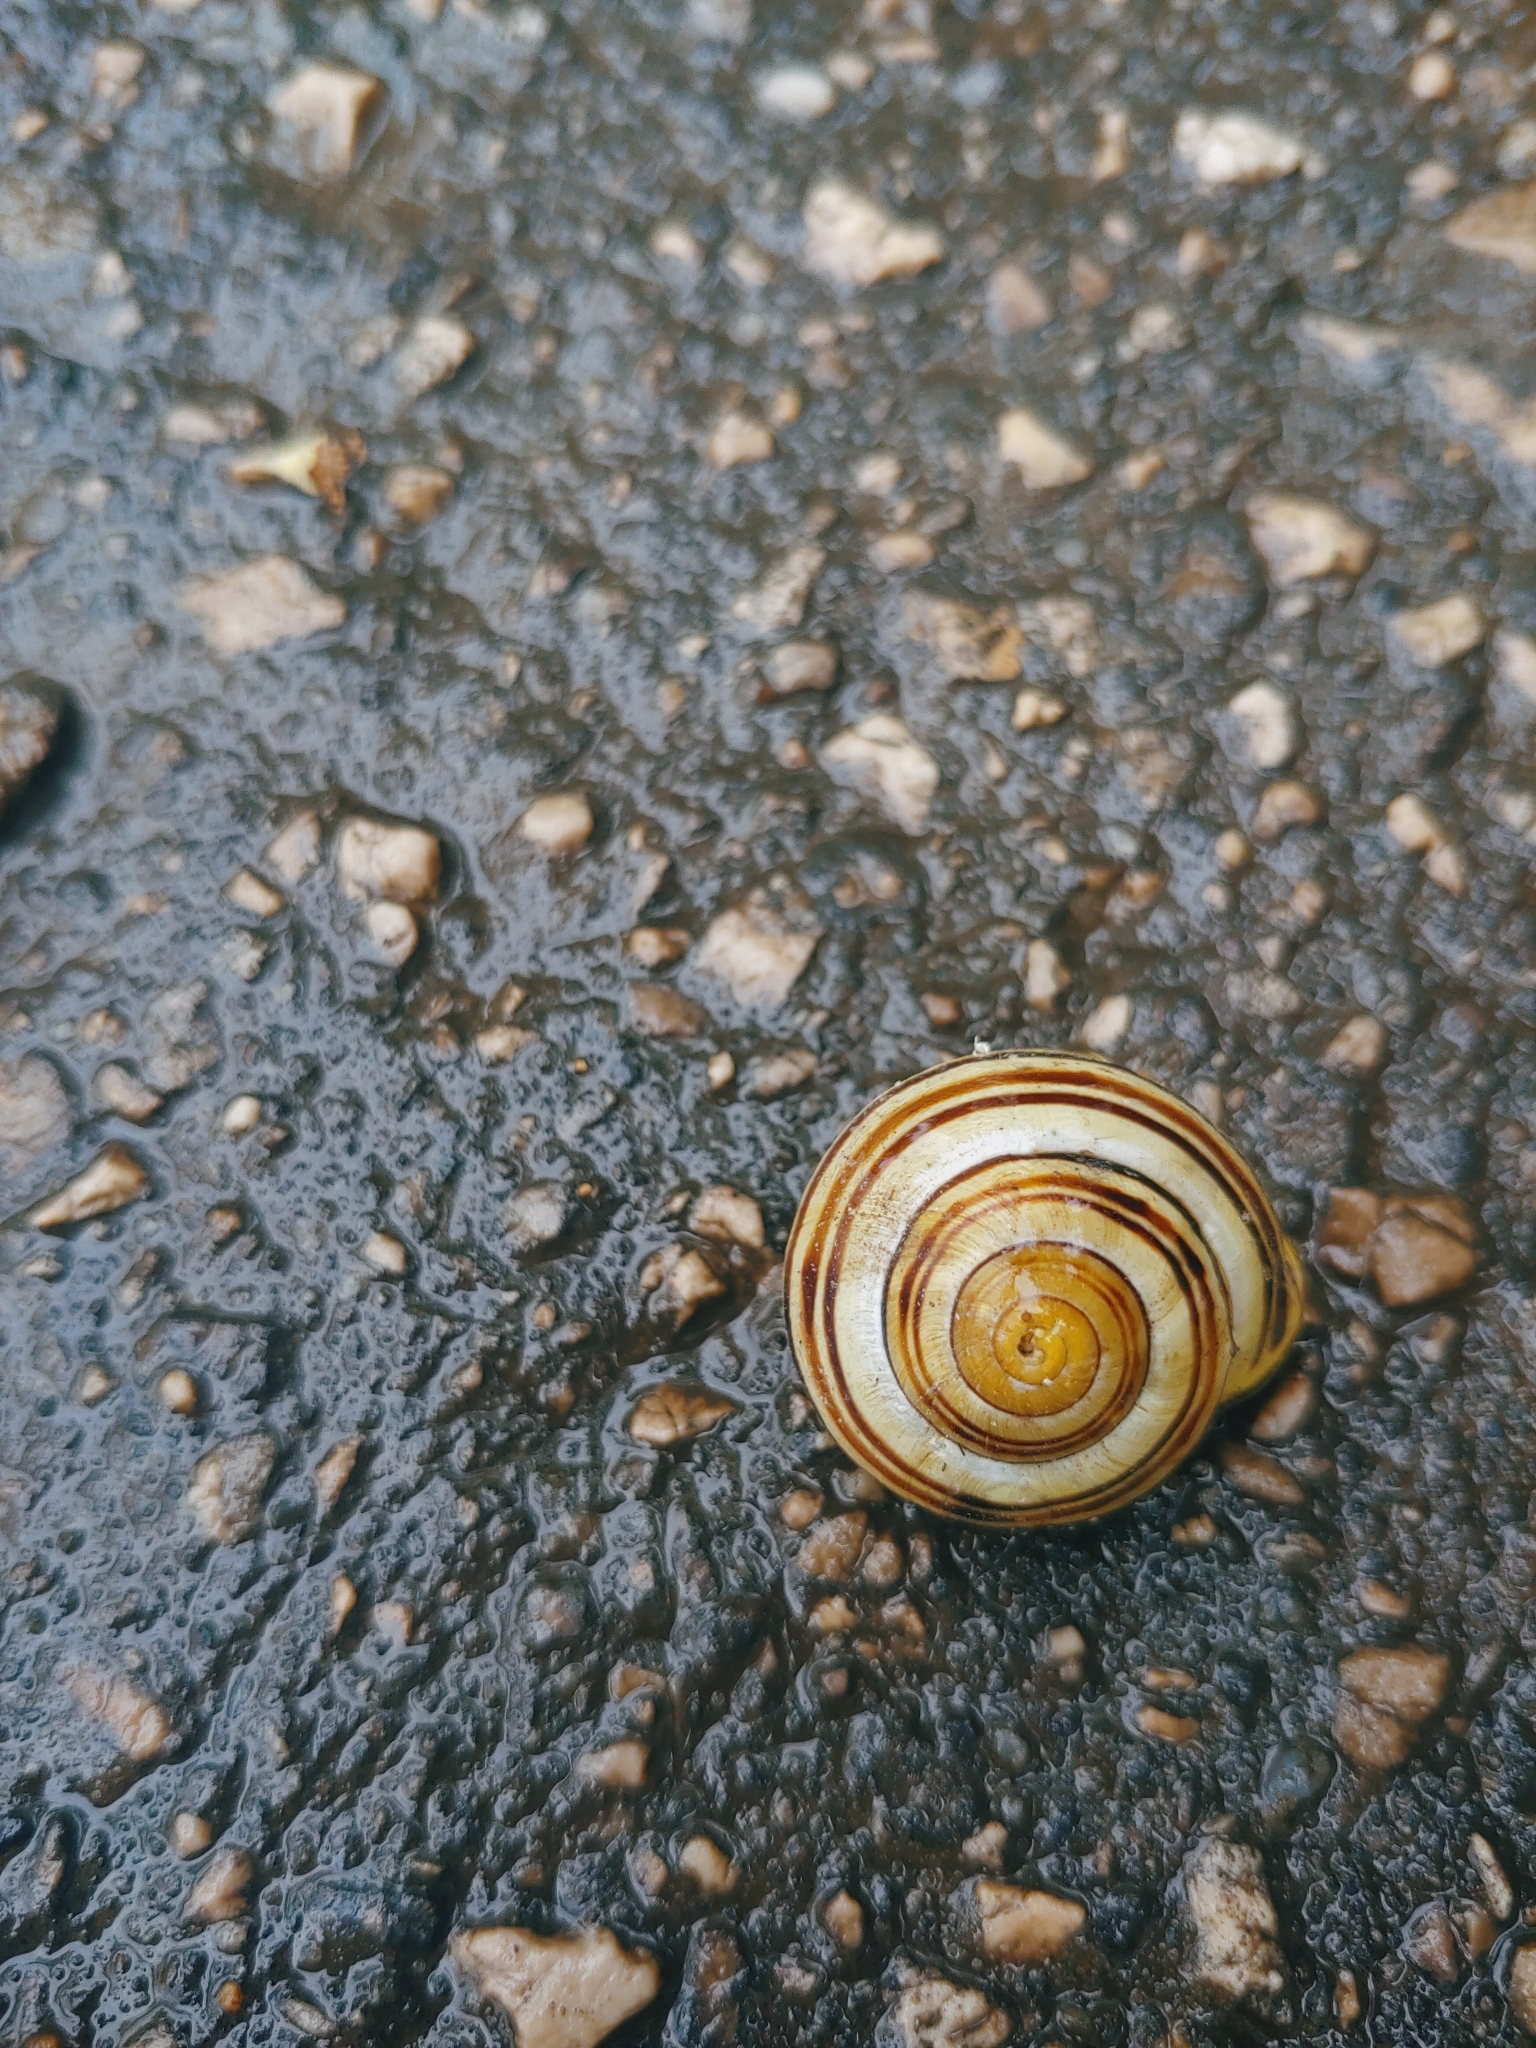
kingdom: Animalia
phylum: Mollusca
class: Gastropoda
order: Stylommatophora
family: Helicidae
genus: Cepaea
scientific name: Cepaea nemoralis
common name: Grovesnail
